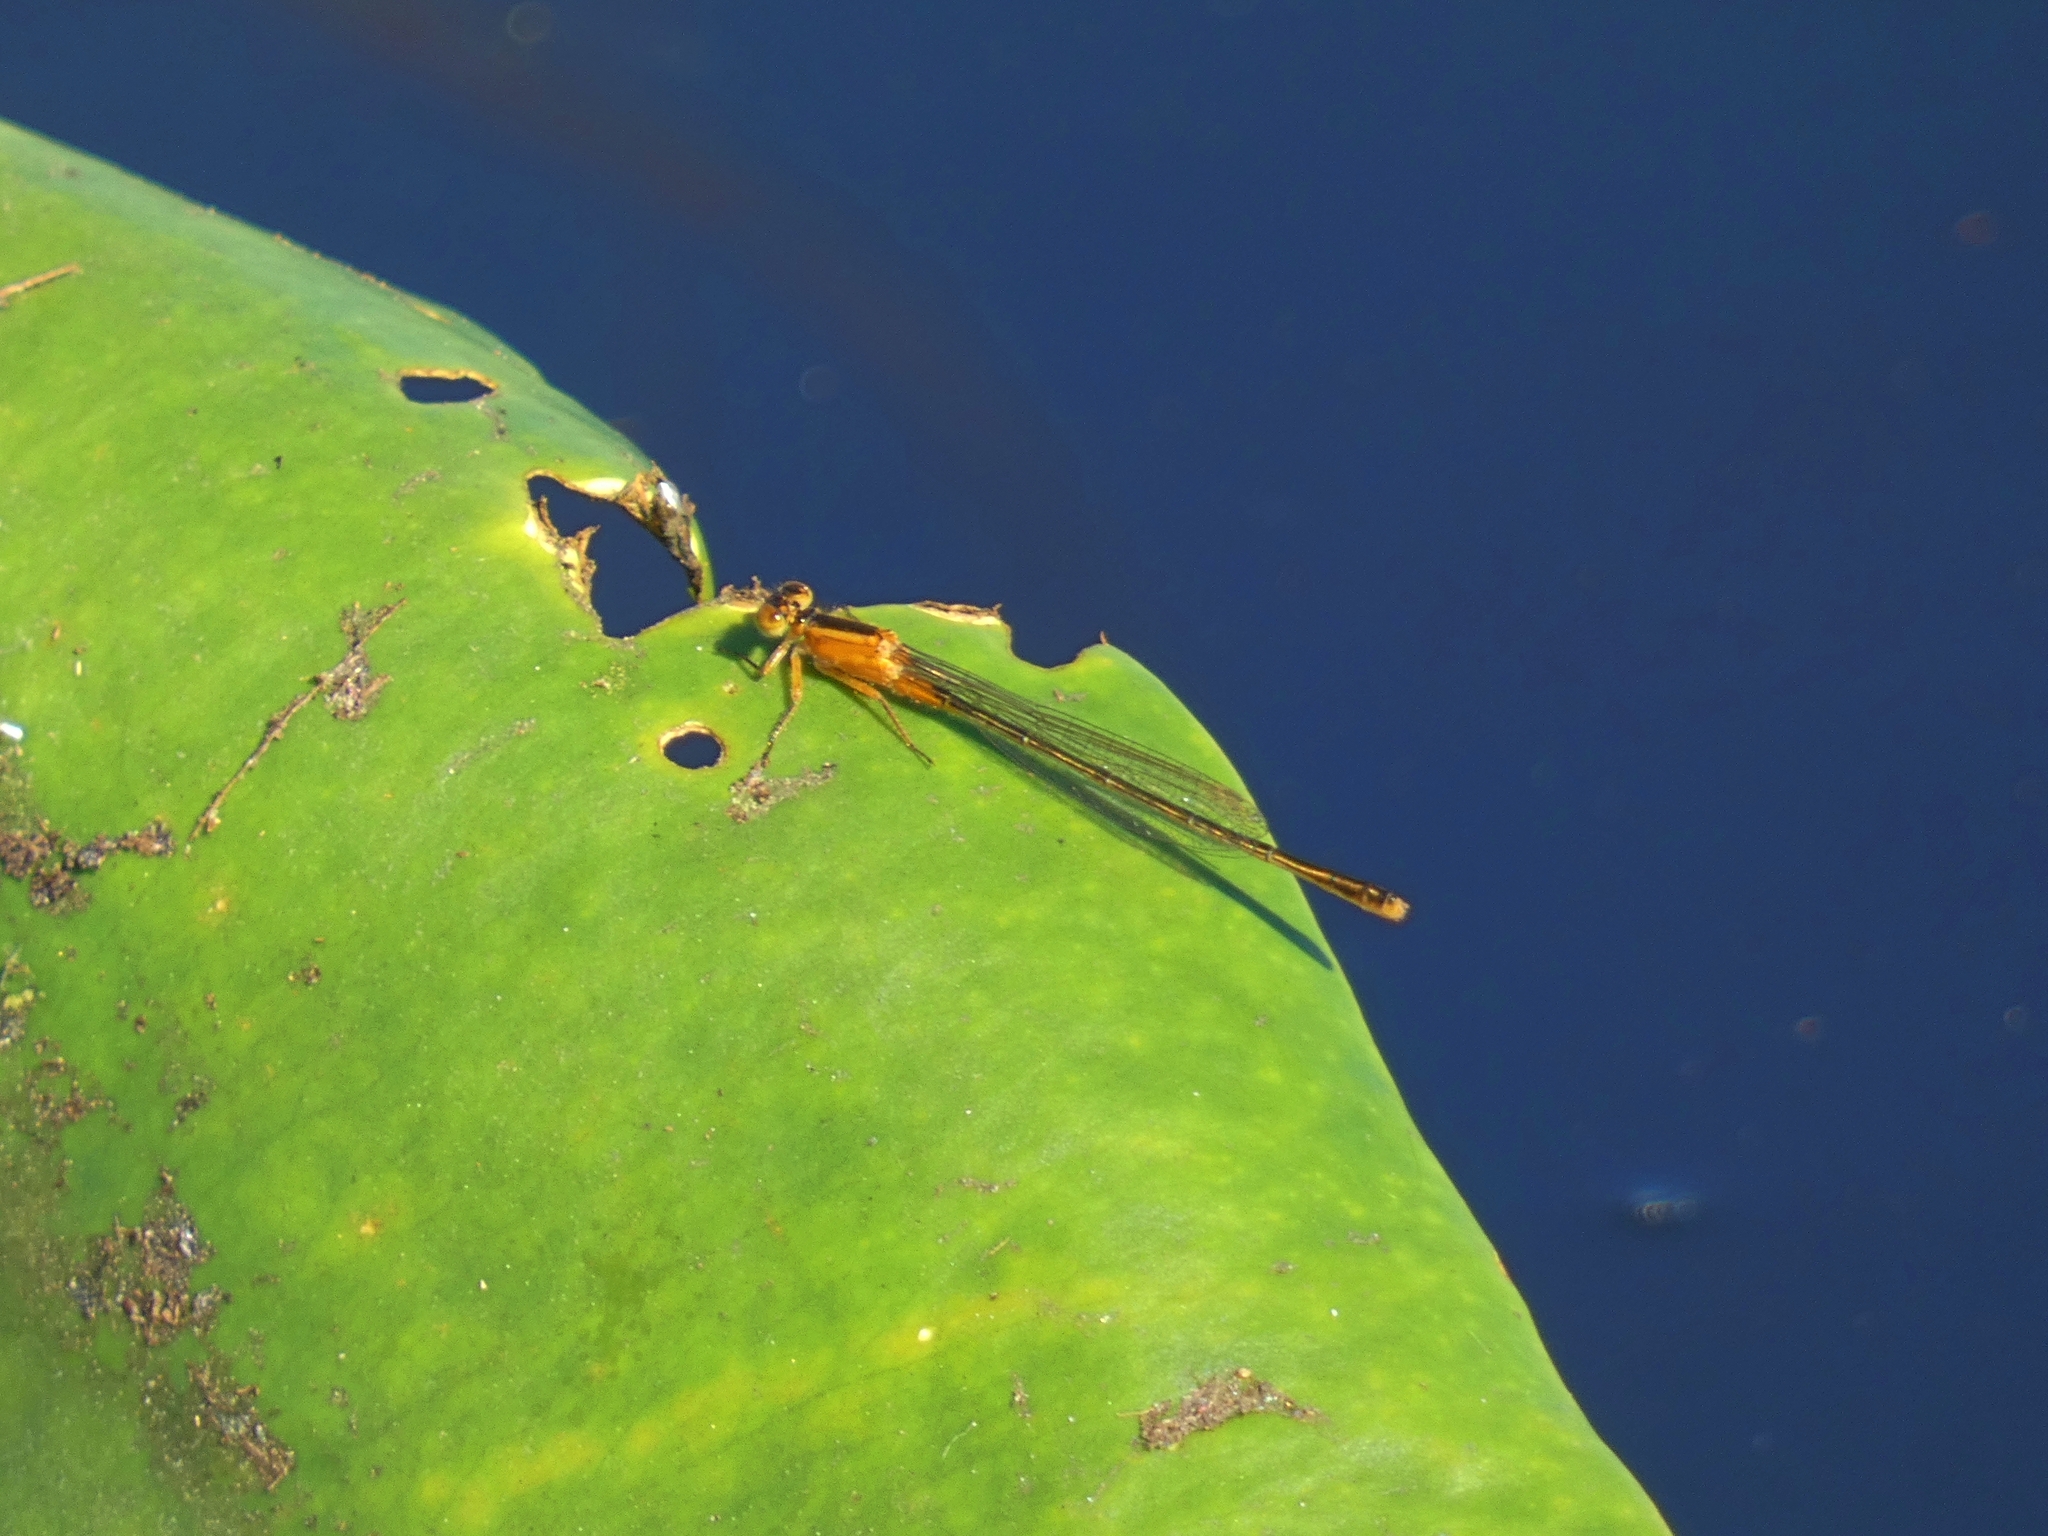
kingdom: Animalia
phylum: Arthropoda
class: Insecta
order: Odonata
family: Coenagrionidae
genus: Ischnura
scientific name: Ischnura ramburii
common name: Rambur's forktail
